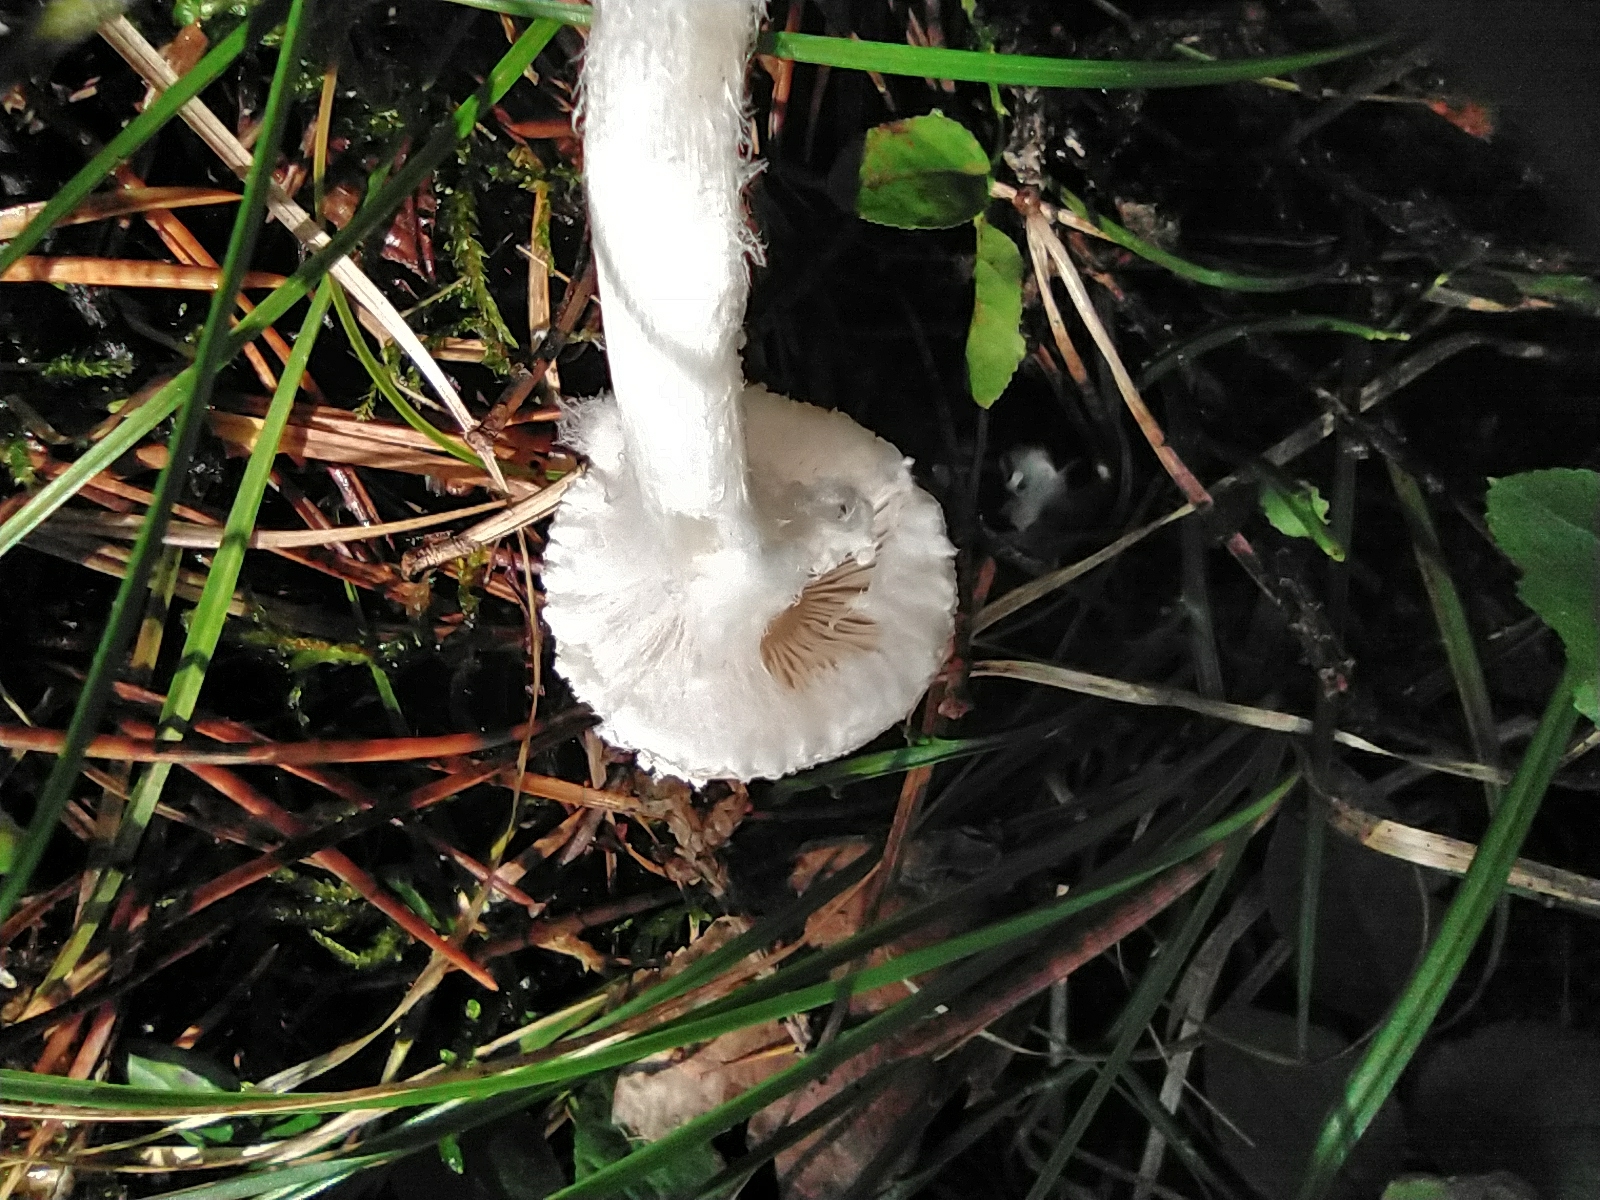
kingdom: Fungi
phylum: Basidiomycota
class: Agaricomycetes
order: Agaricales
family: Agaricaceae
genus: Lepiota
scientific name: Lepiota clypeolaria
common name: Shield dapperling
